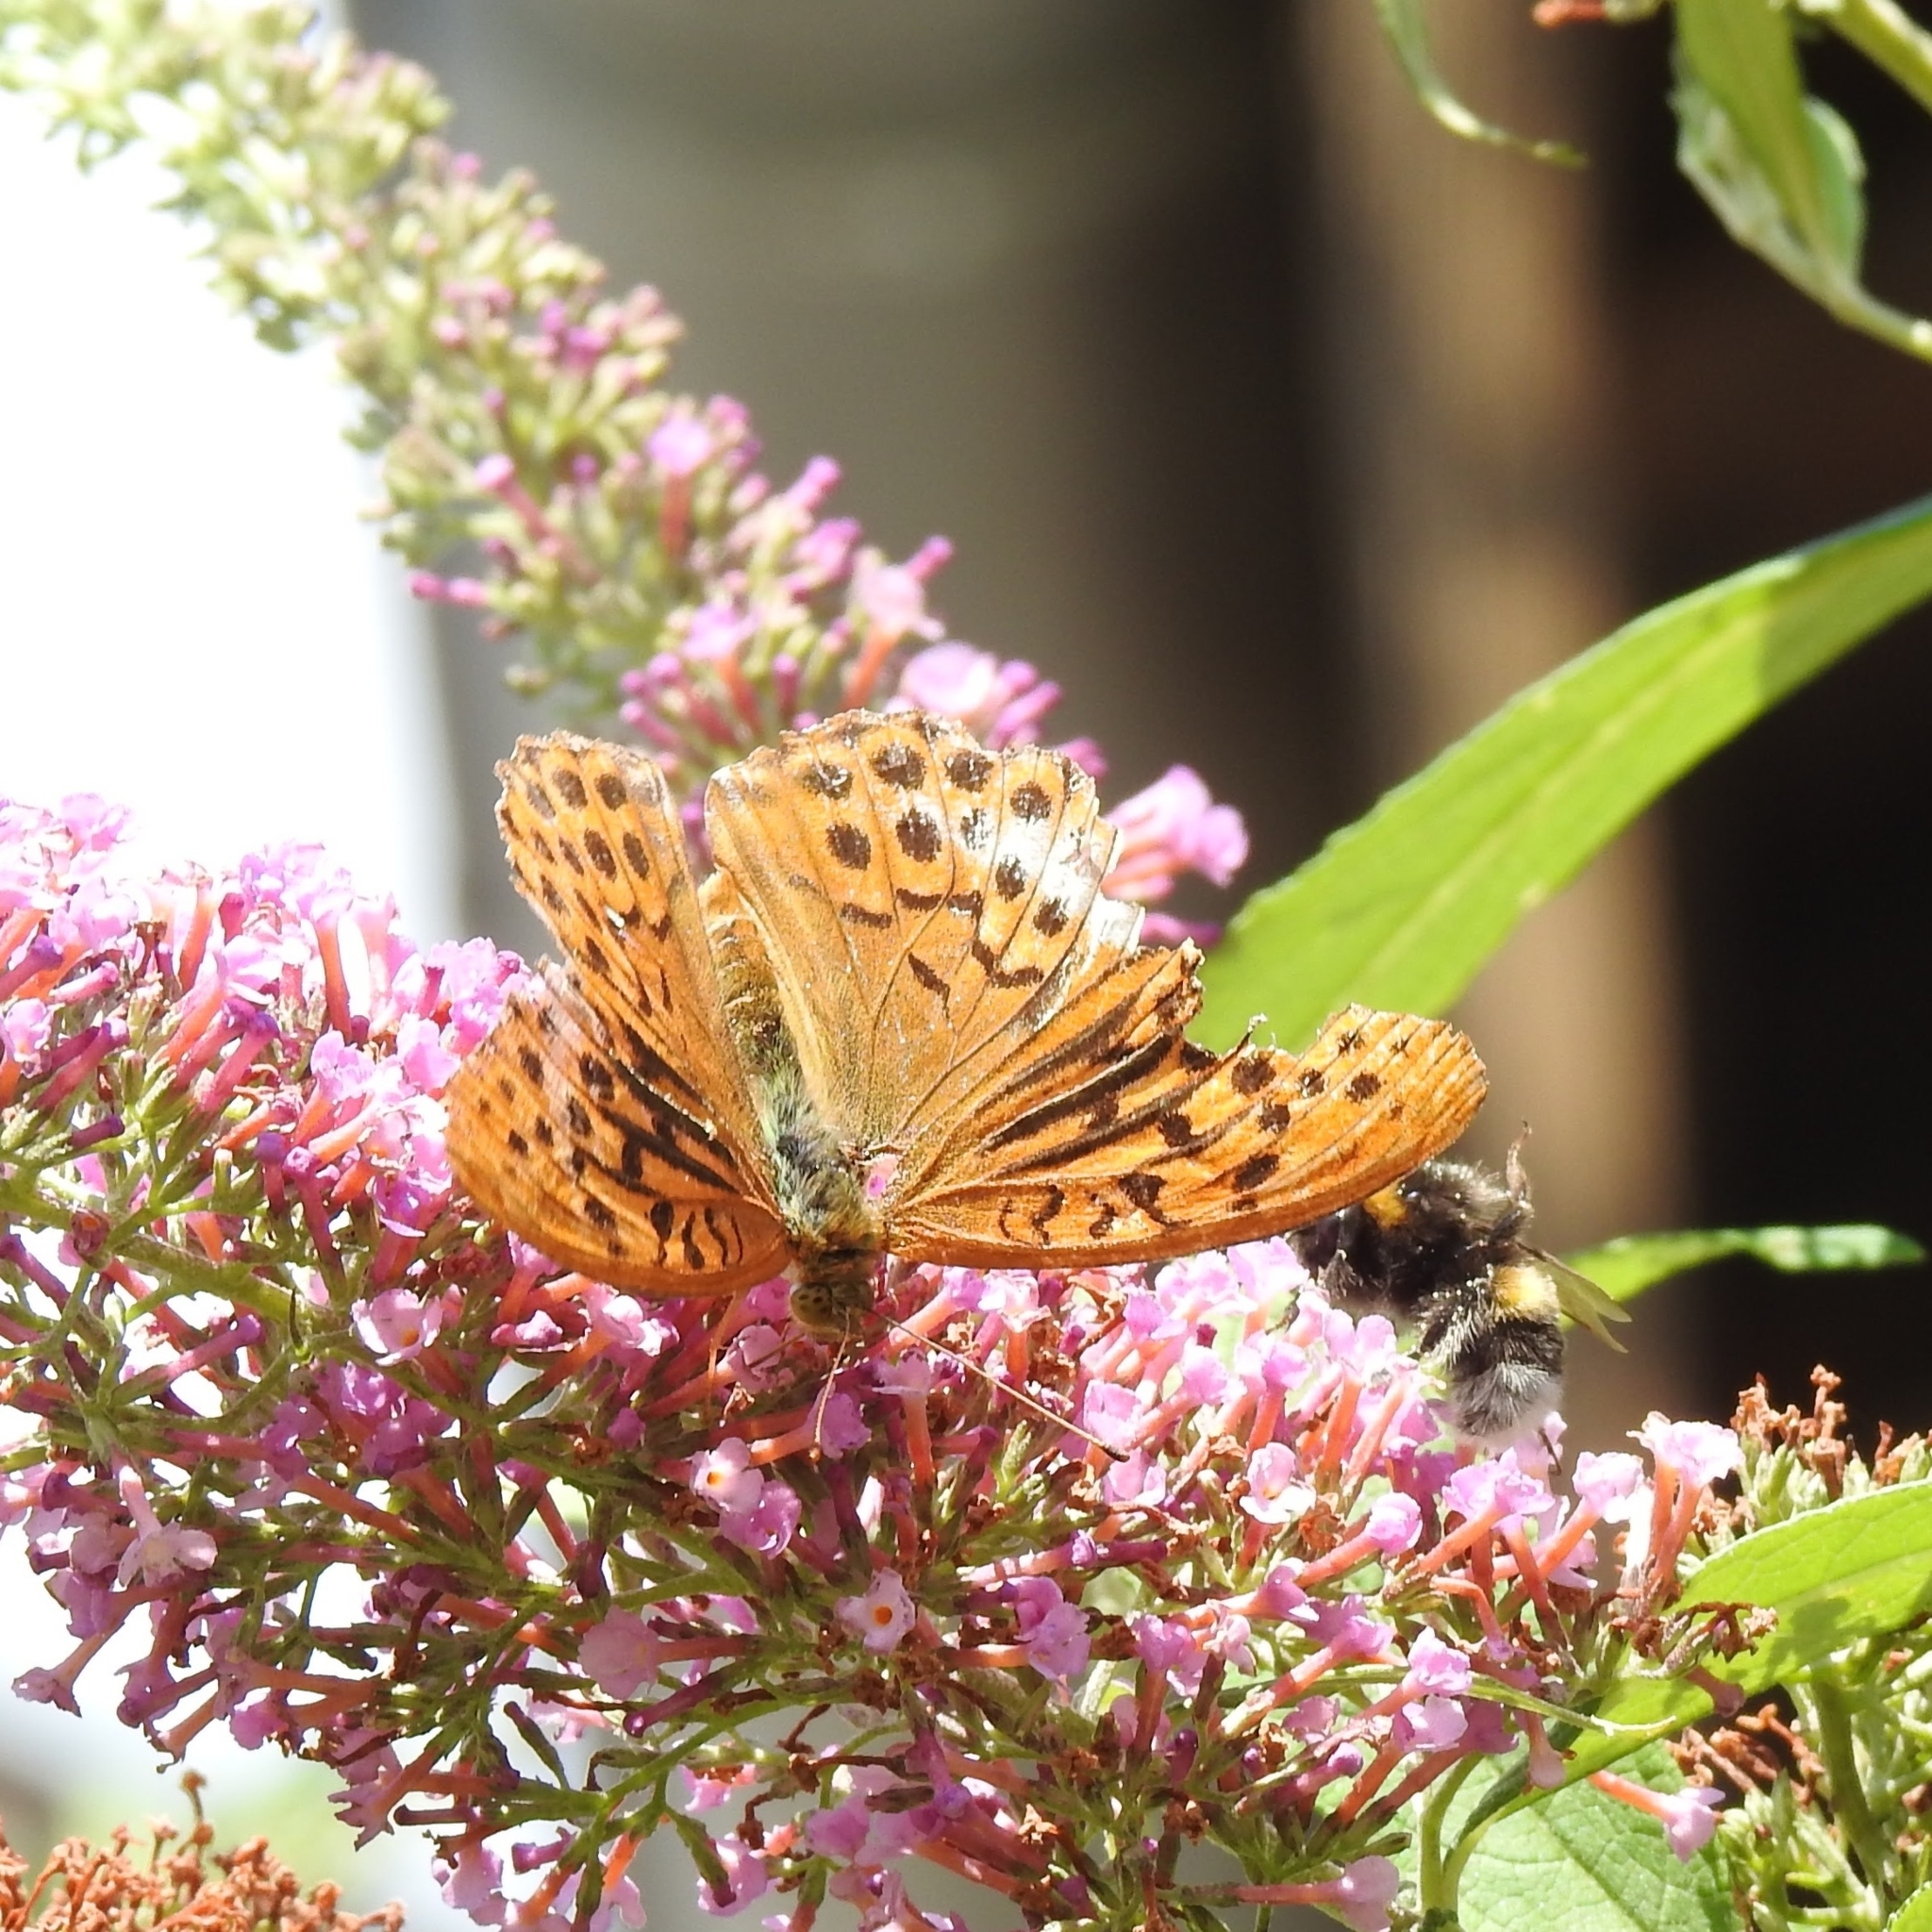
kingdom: Animalia
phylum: Arthropoda
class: Insecta
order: Lepidoptera
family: Nymphalidae
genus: Argynnis
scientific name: Argynnis paphia
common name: Silver-washed fritillary
